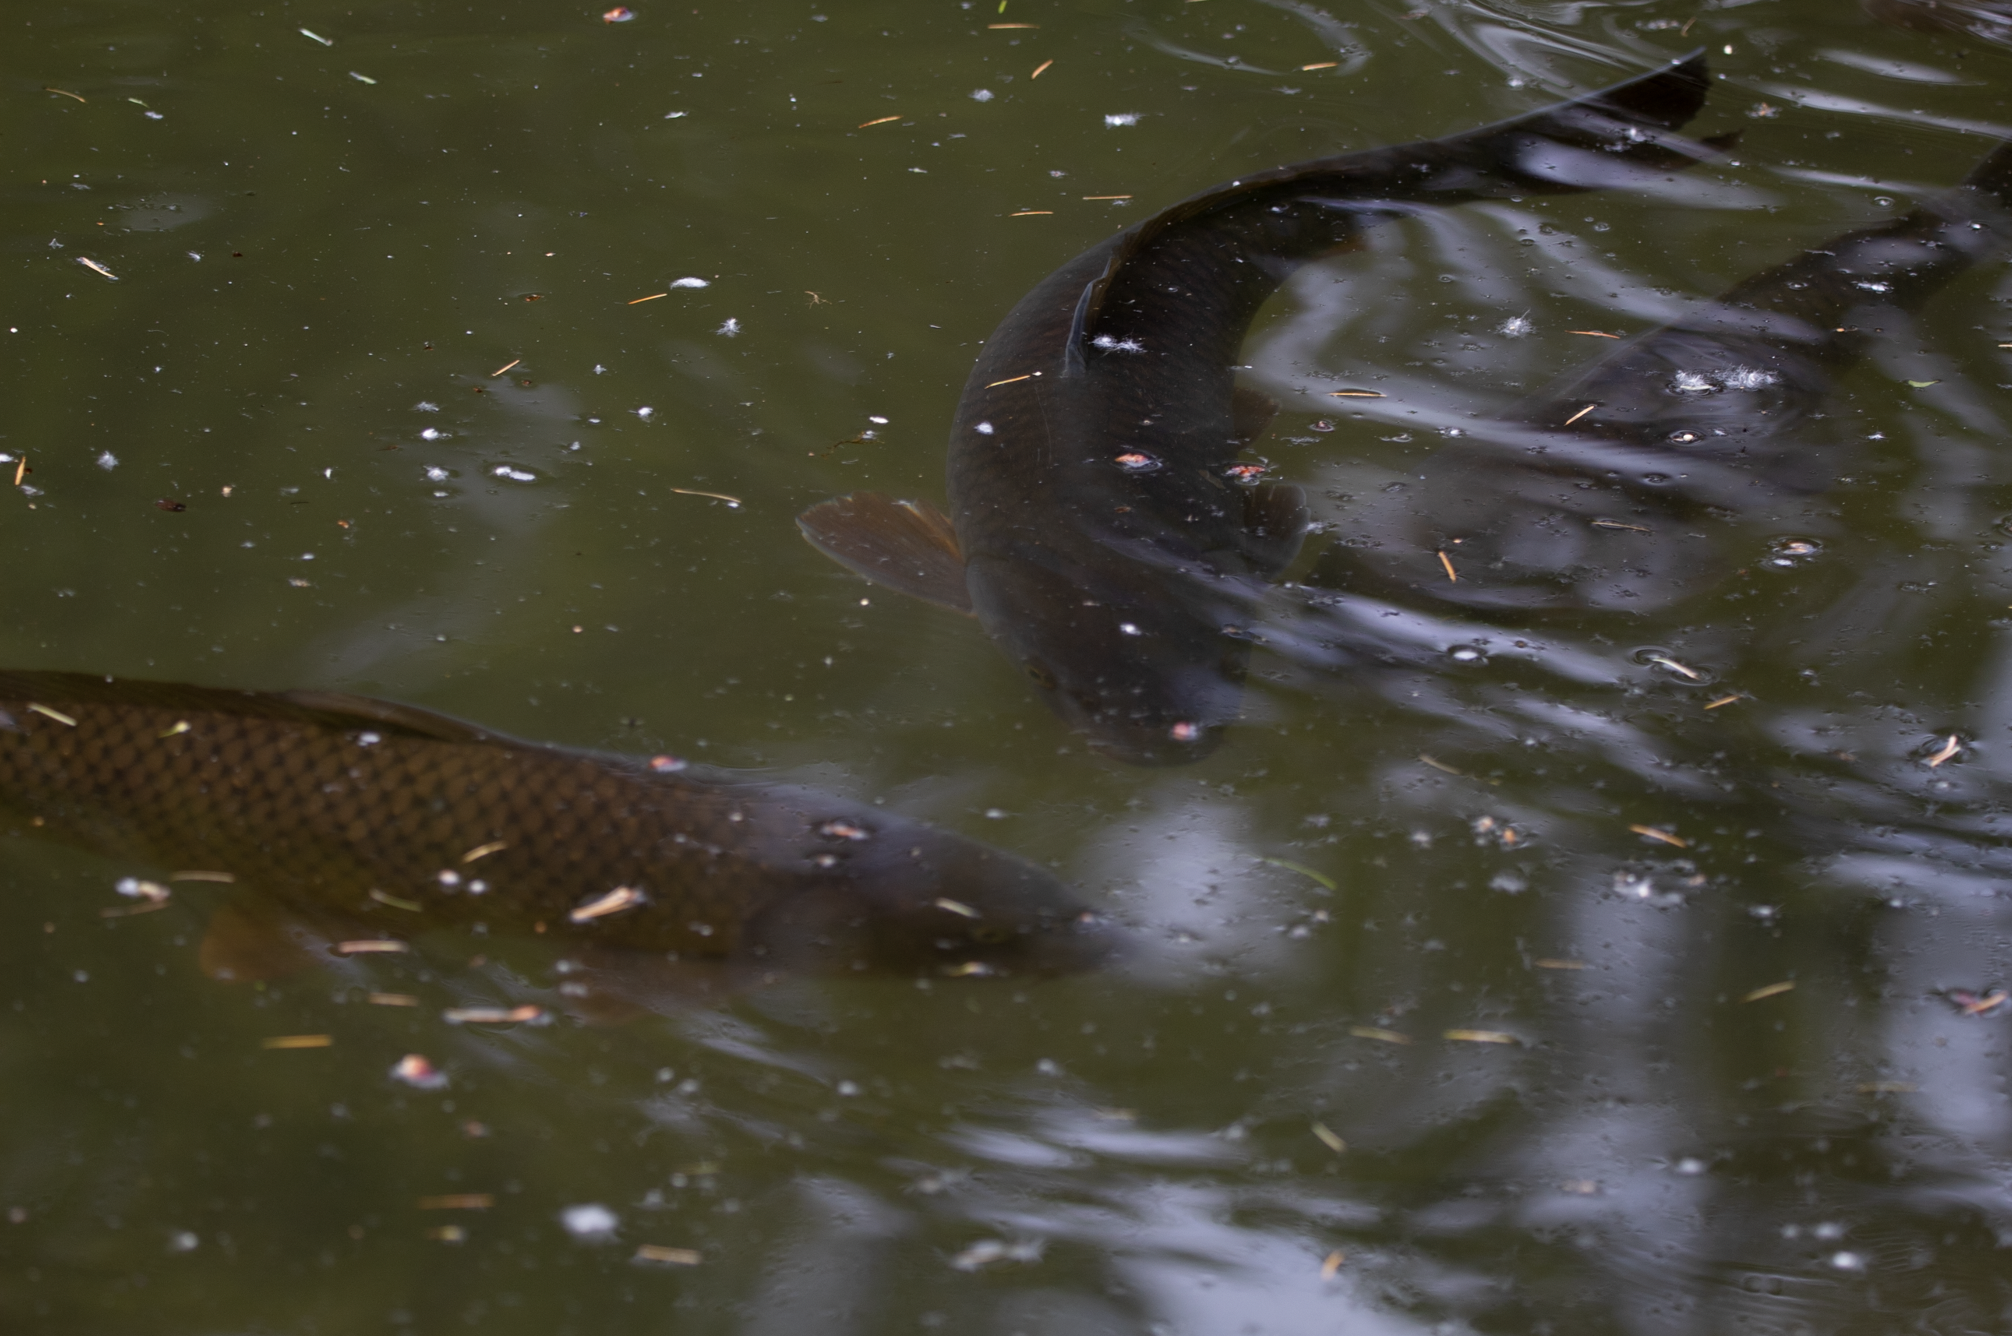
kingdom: Animalia
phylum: Chordata
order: Cypriniformes
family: Cyprinidae
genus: Cyprinus
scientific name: Cyprinus carpio
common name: Common carp
